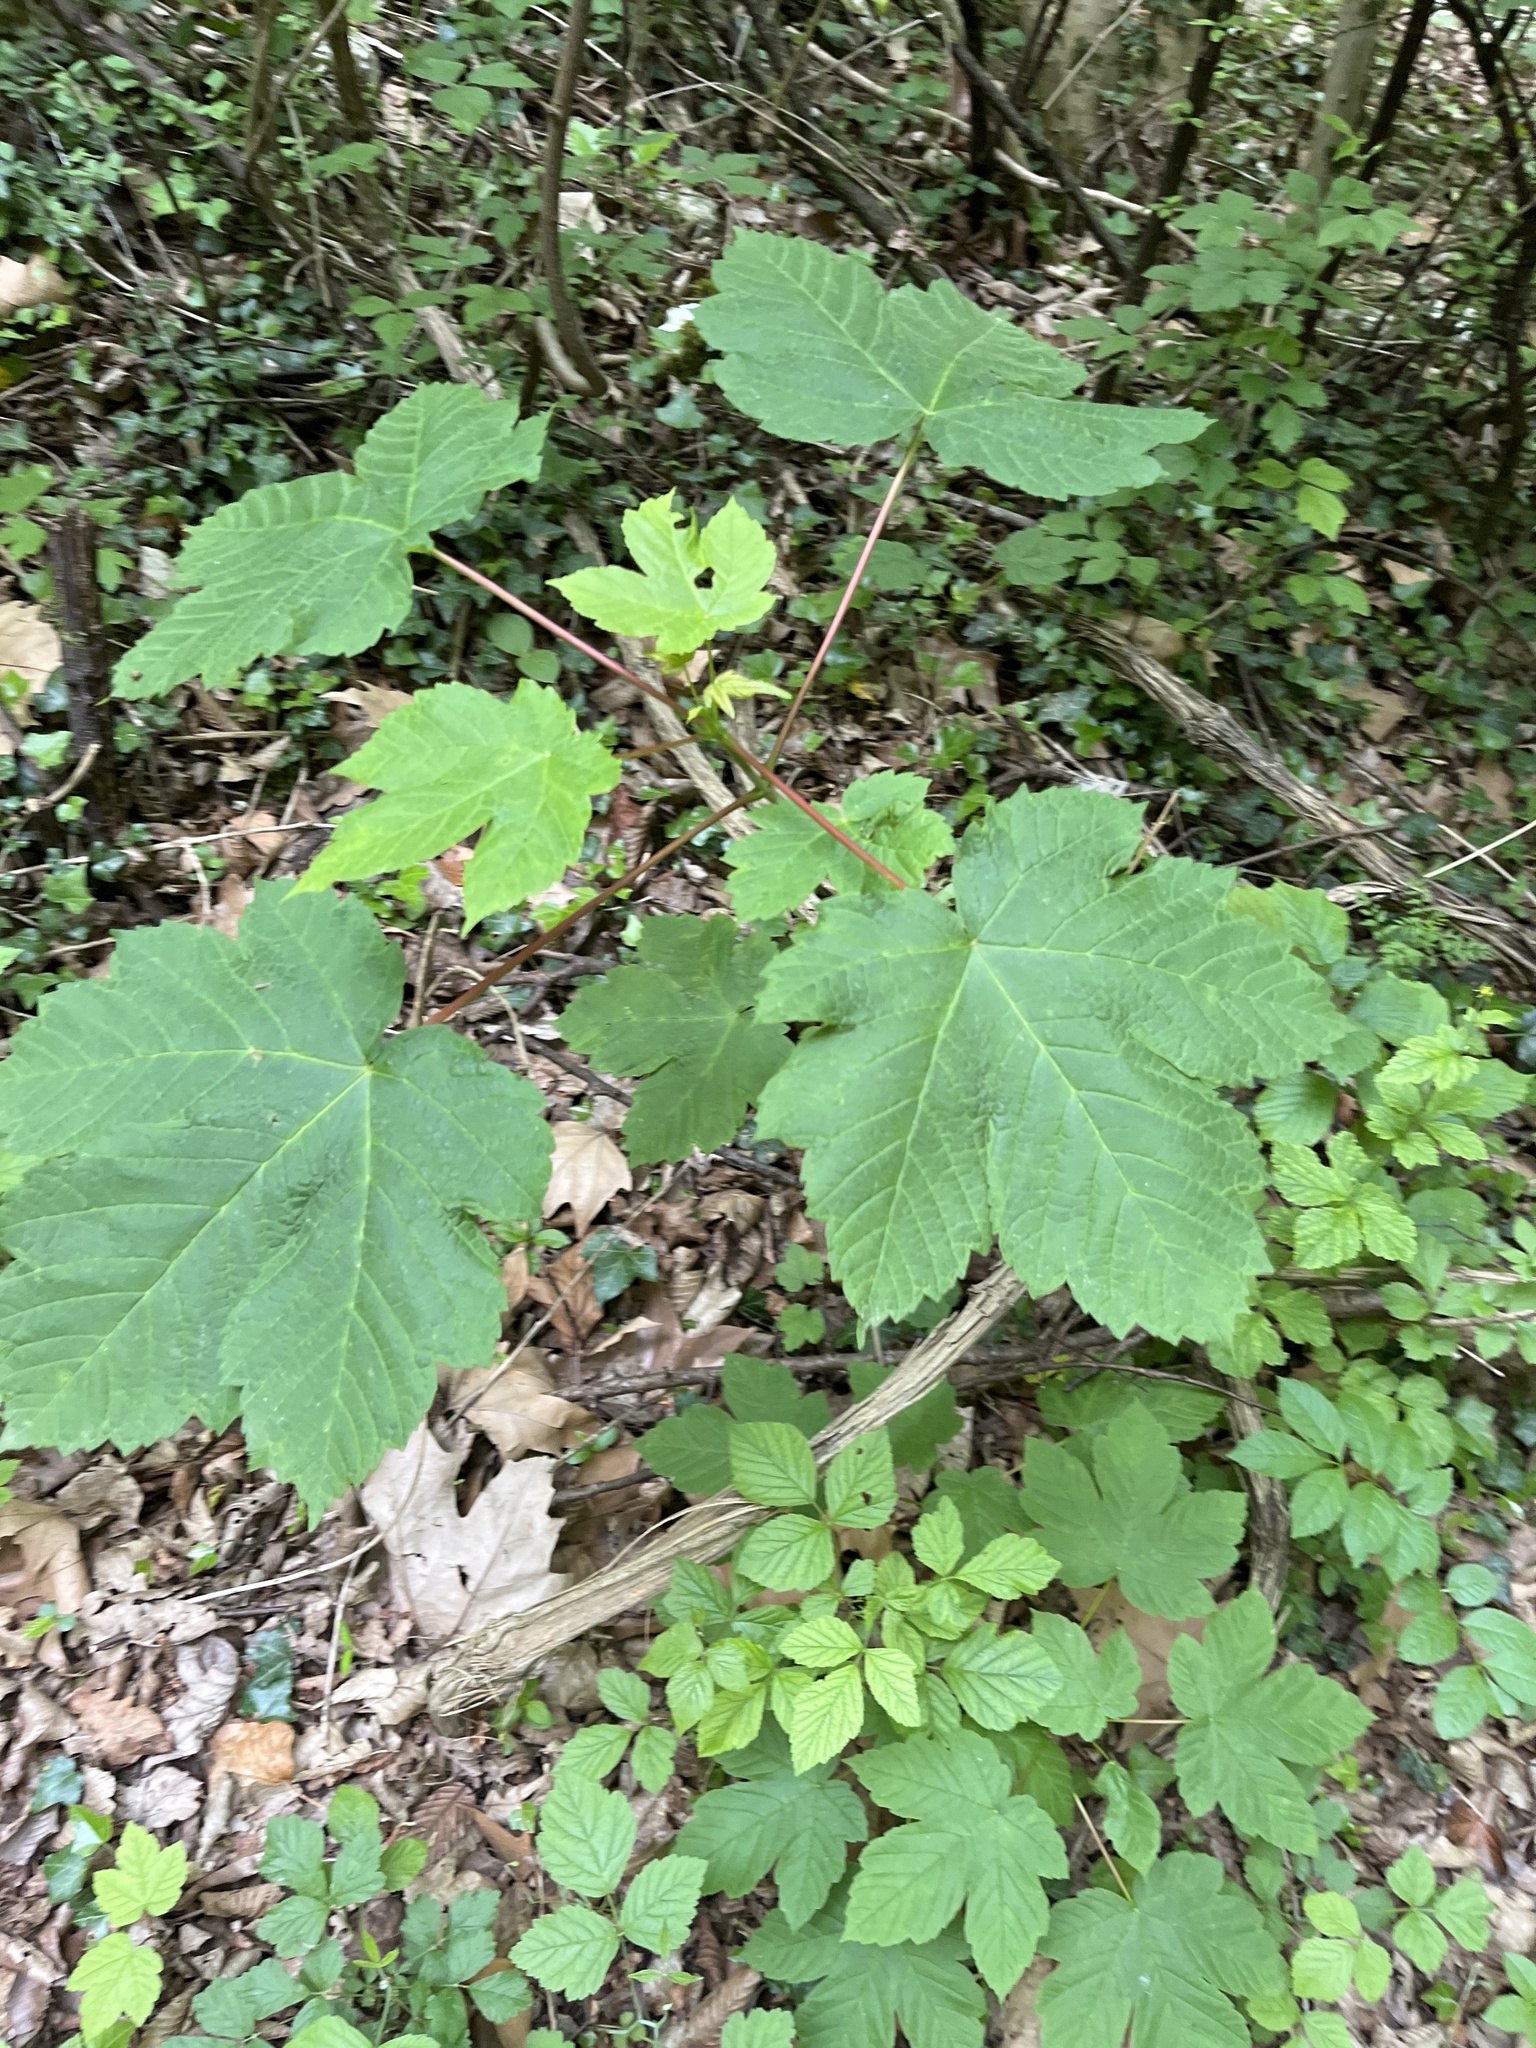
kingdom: Plantae
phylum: Tracheophyta
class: Magnoliopsida
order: Sapindales
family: Sapindaceae
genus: Acer
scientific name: Acer pseudoplatanus
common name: Sycamore
